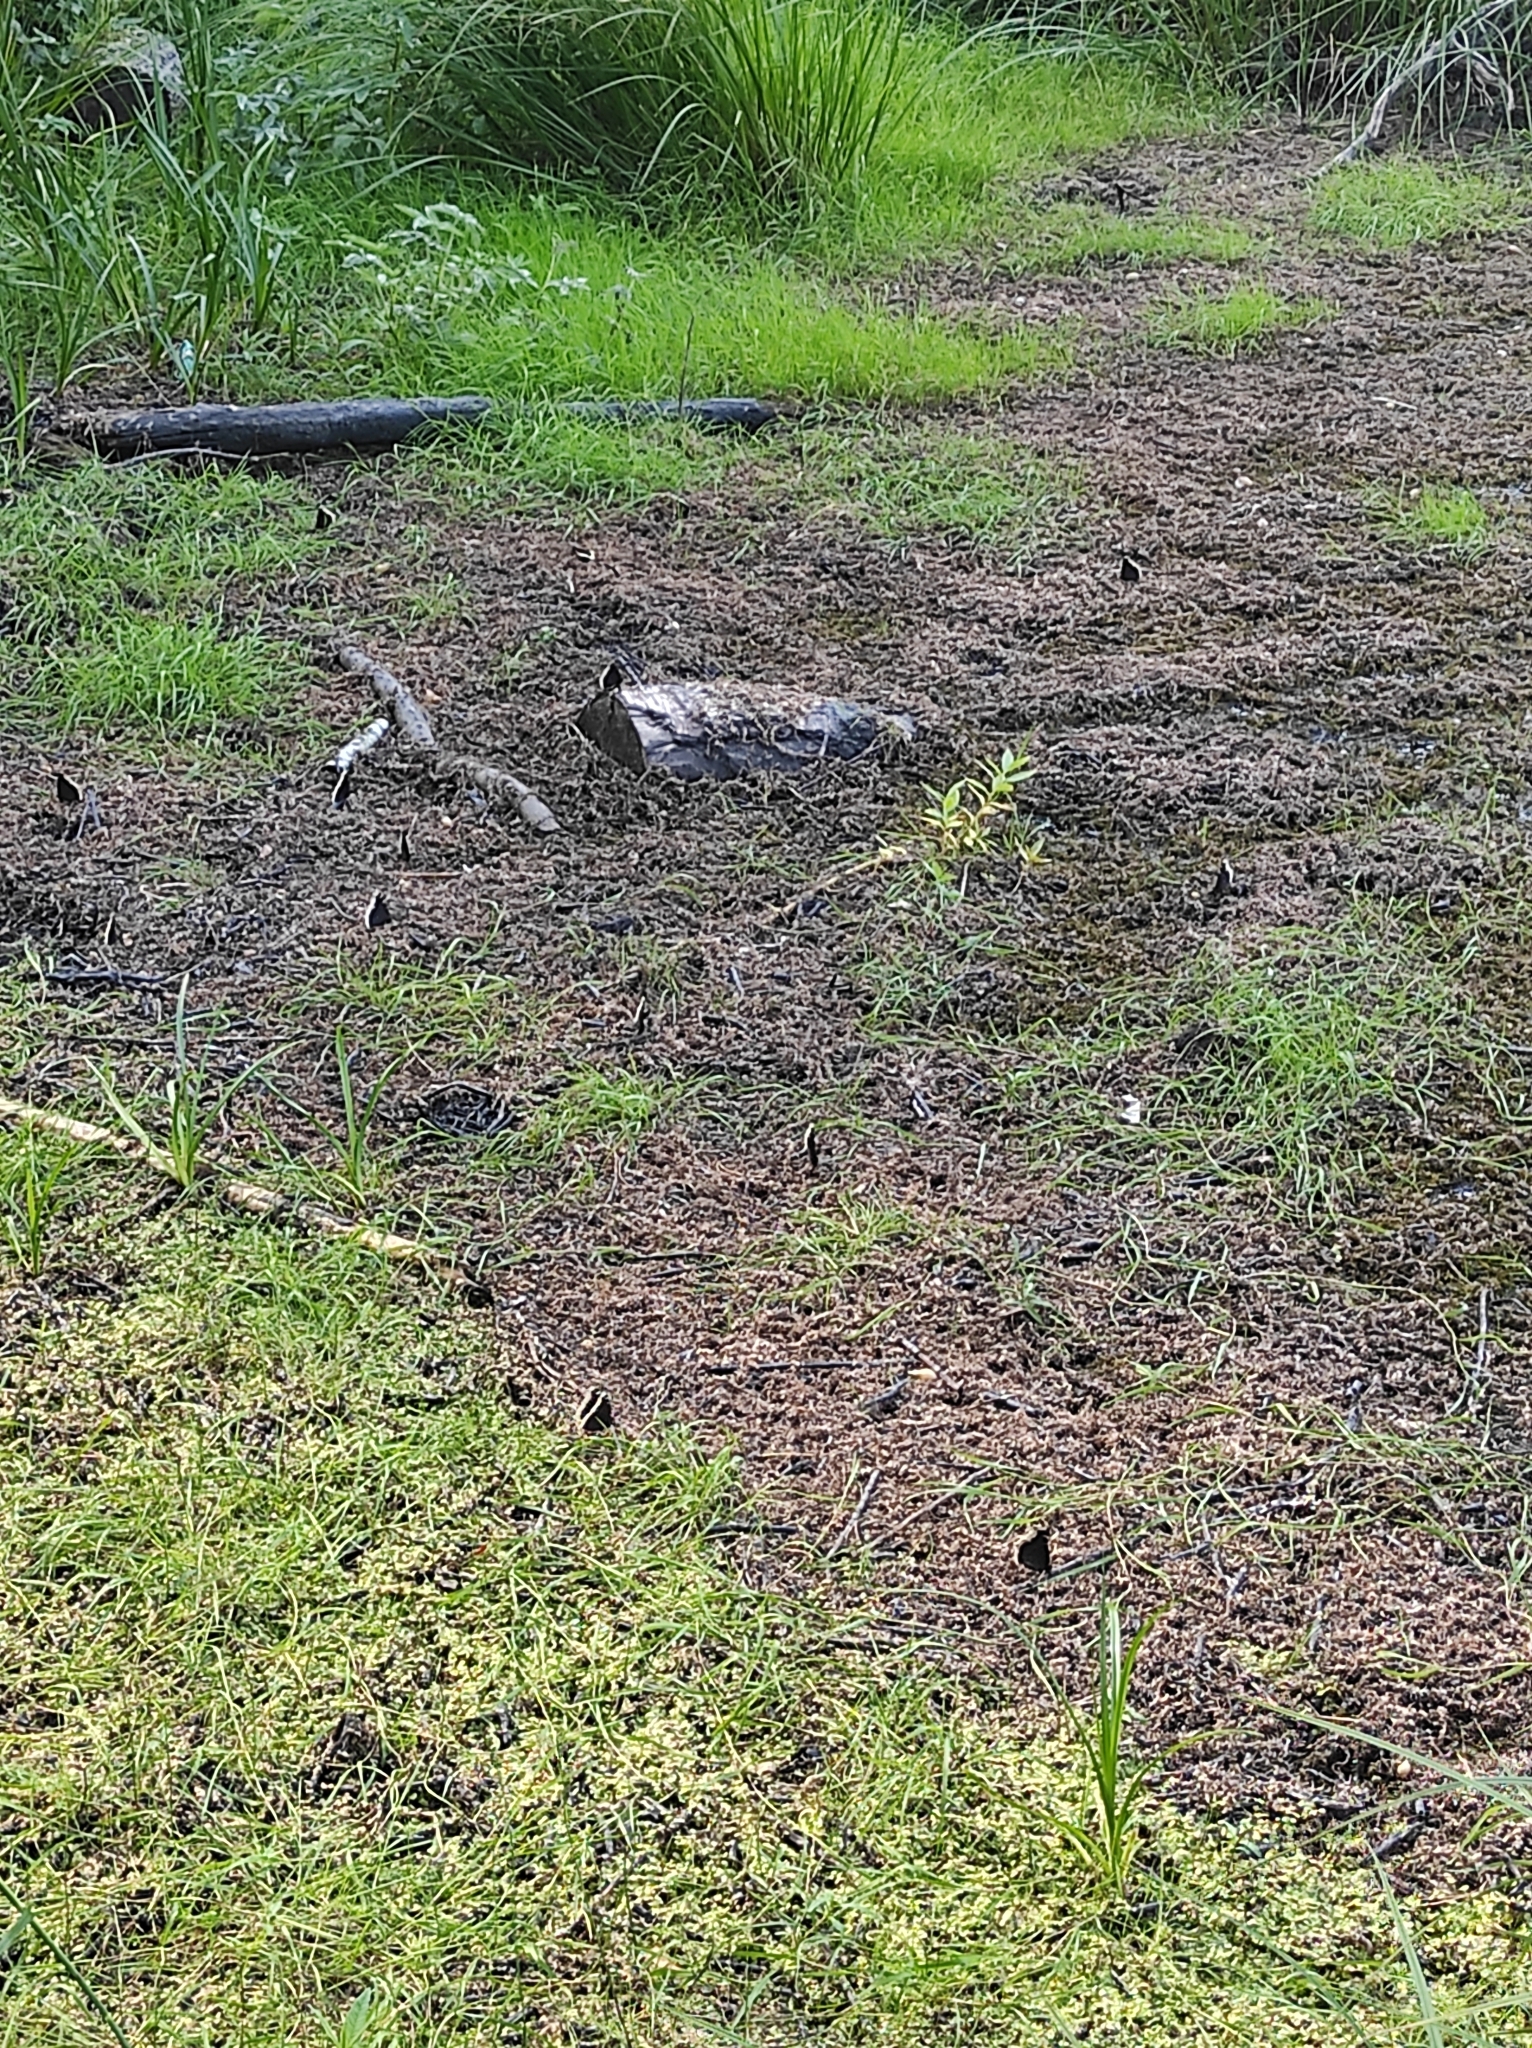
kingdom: Animalia
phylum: Arthropoda
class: Insecta
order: Lepidoptera
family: Nymphalidae
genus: Nymphalis
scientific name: Nymphalis antiopa
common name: Camberwell beauty
